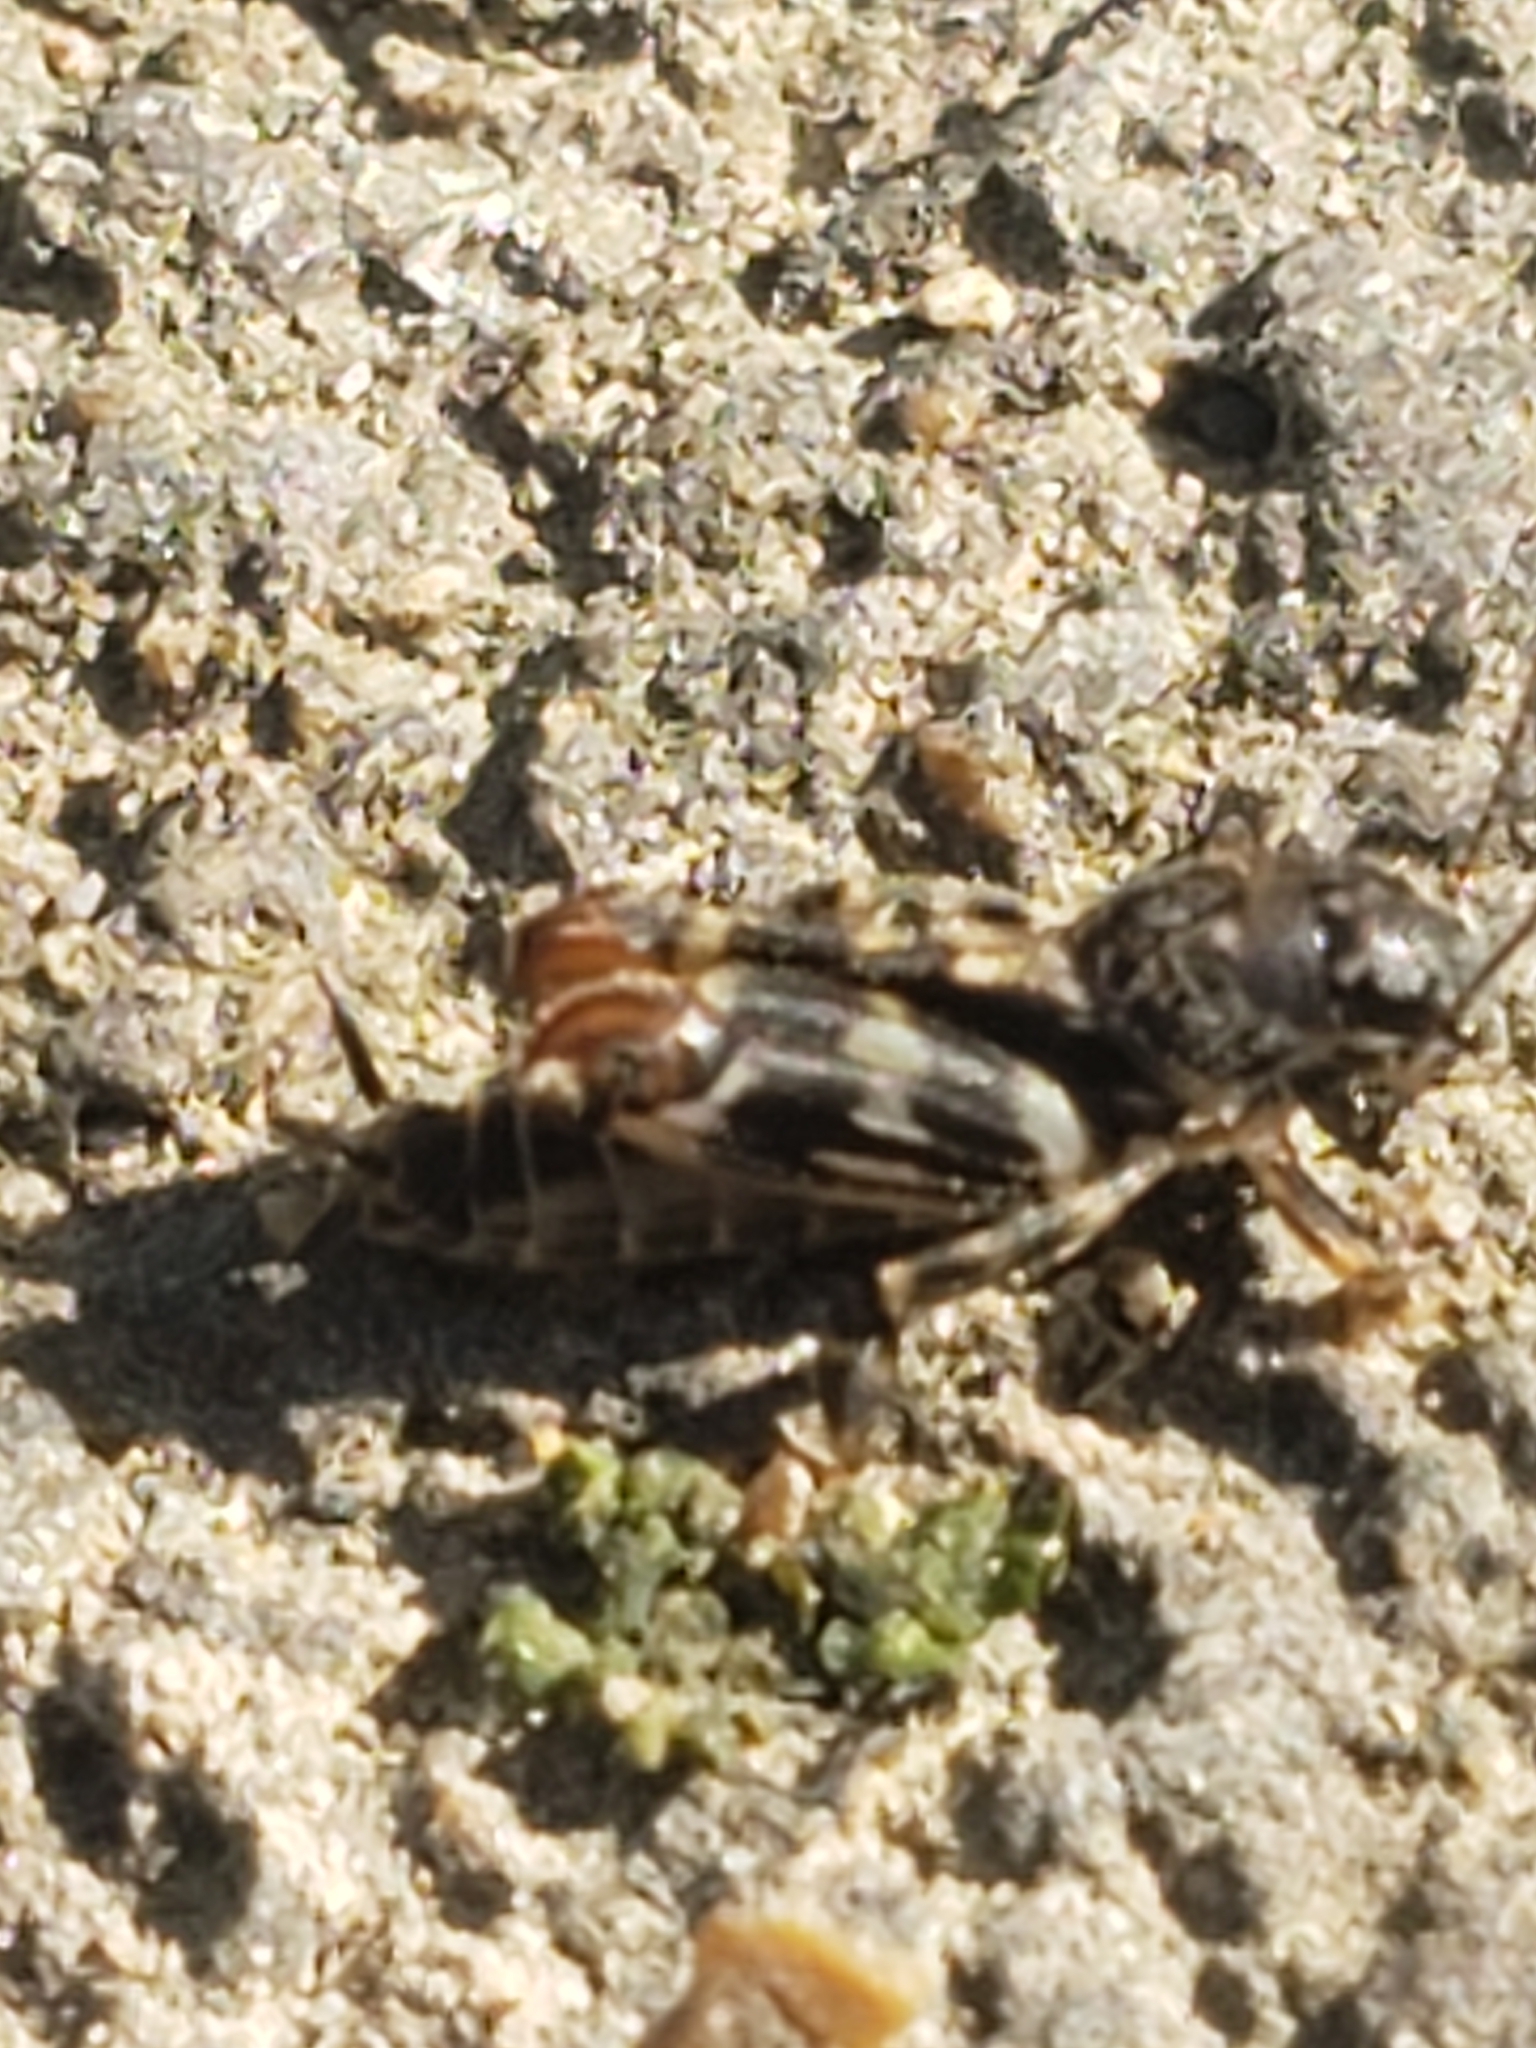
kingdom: Animalia
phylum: Arthropoda
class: Insecta
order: Orthoptera
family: Tridactylidae
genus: Ellipes
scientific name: Ellipes minuta
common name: Minute pygmy locust
